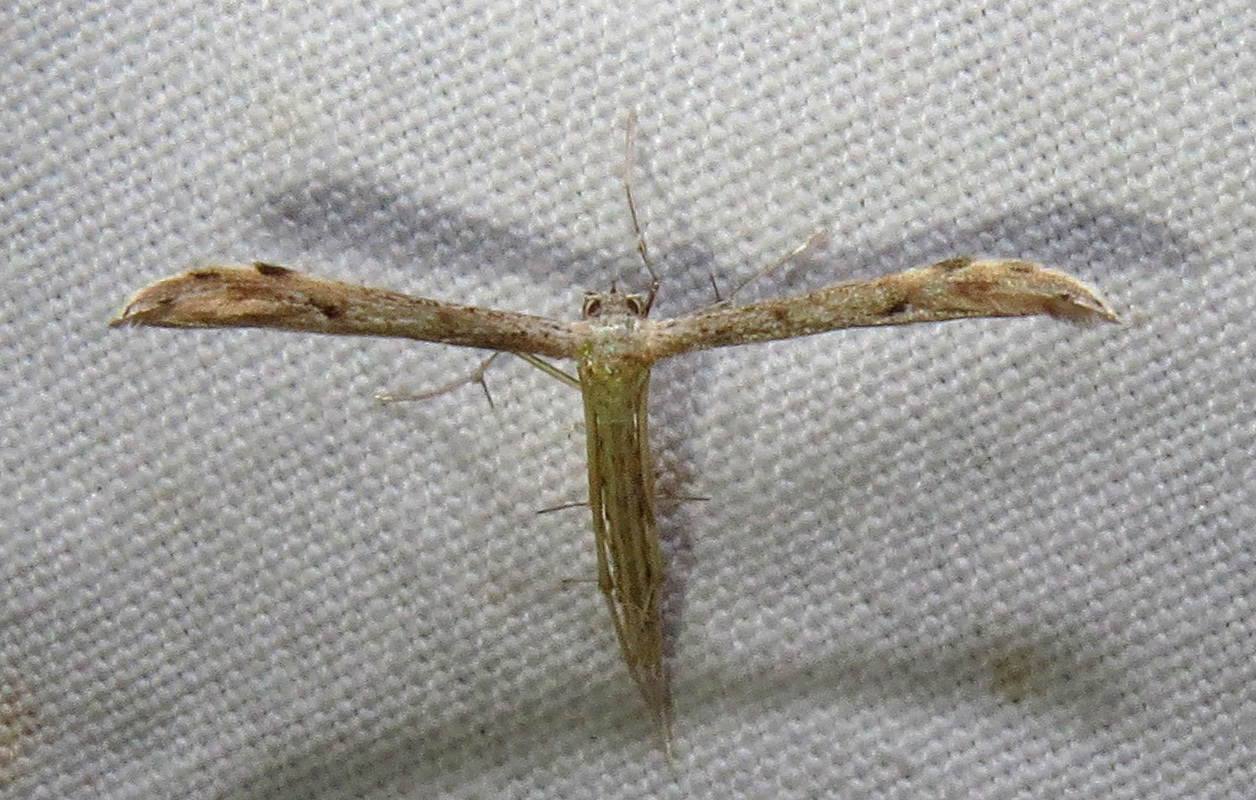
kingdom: Animalia
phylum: Arthropoda
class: Insecta
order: Lepidoptera
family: Pterophoridae
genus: Pselnophorus
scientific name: Pselnophorus belfragei
